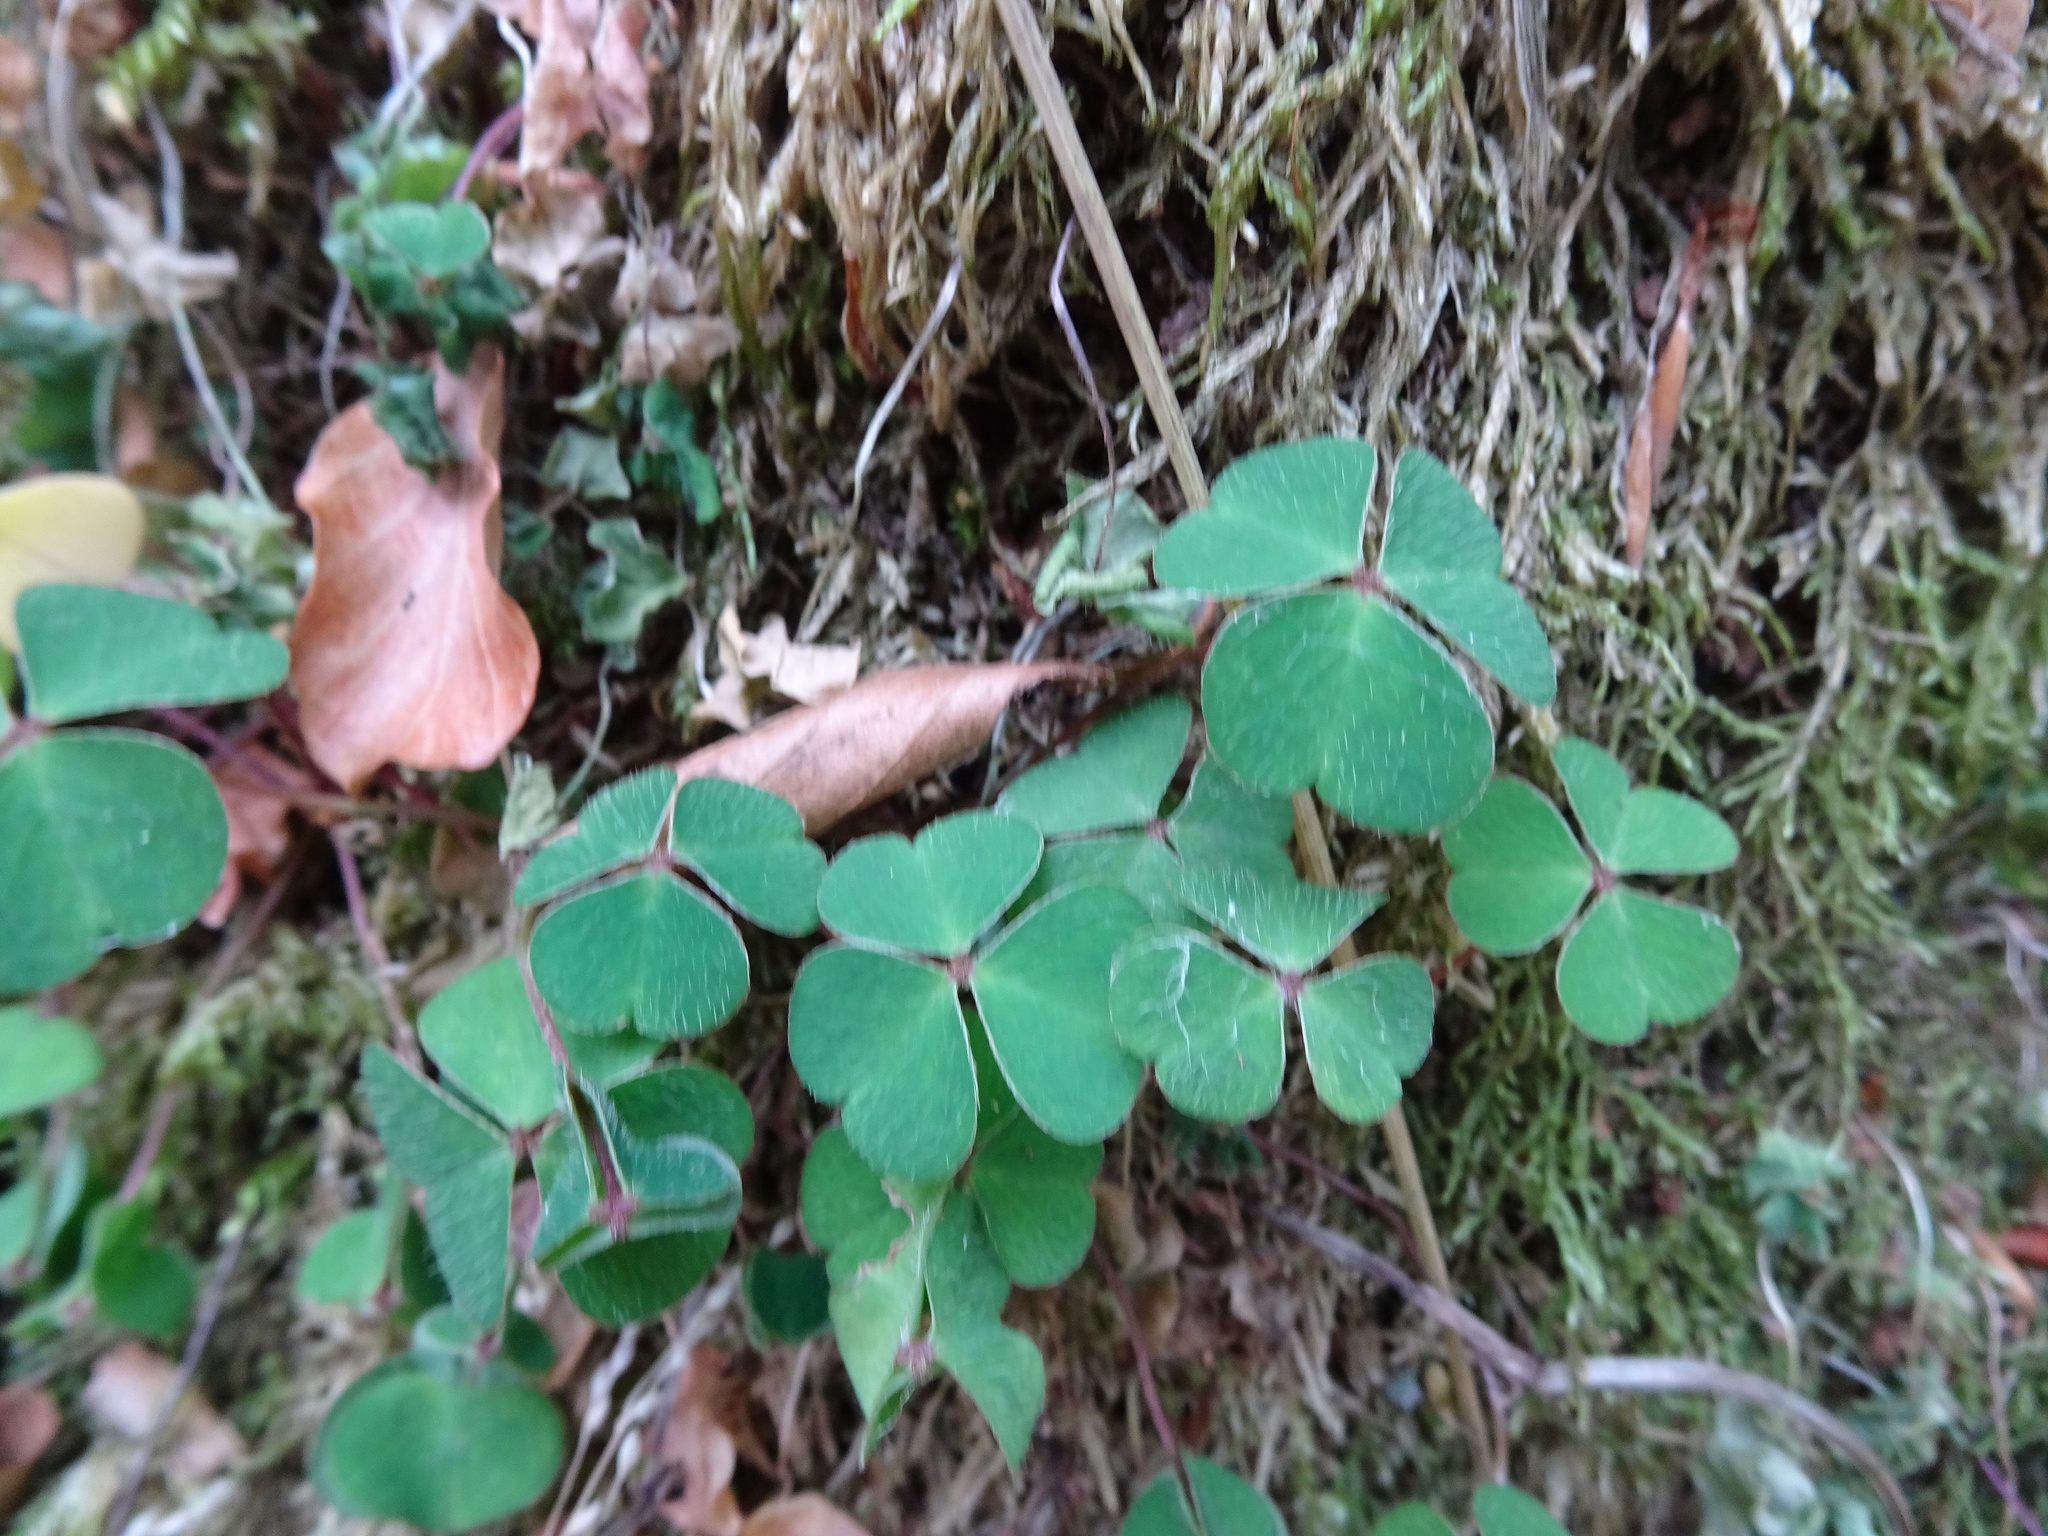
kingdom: Plantae
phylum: Tracheophyta
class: Magnoliopsida
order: Oxalidales
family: Oxalidaceae
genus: Oxalis
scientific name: Oxalis acetosella
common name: Wood-sorrel
